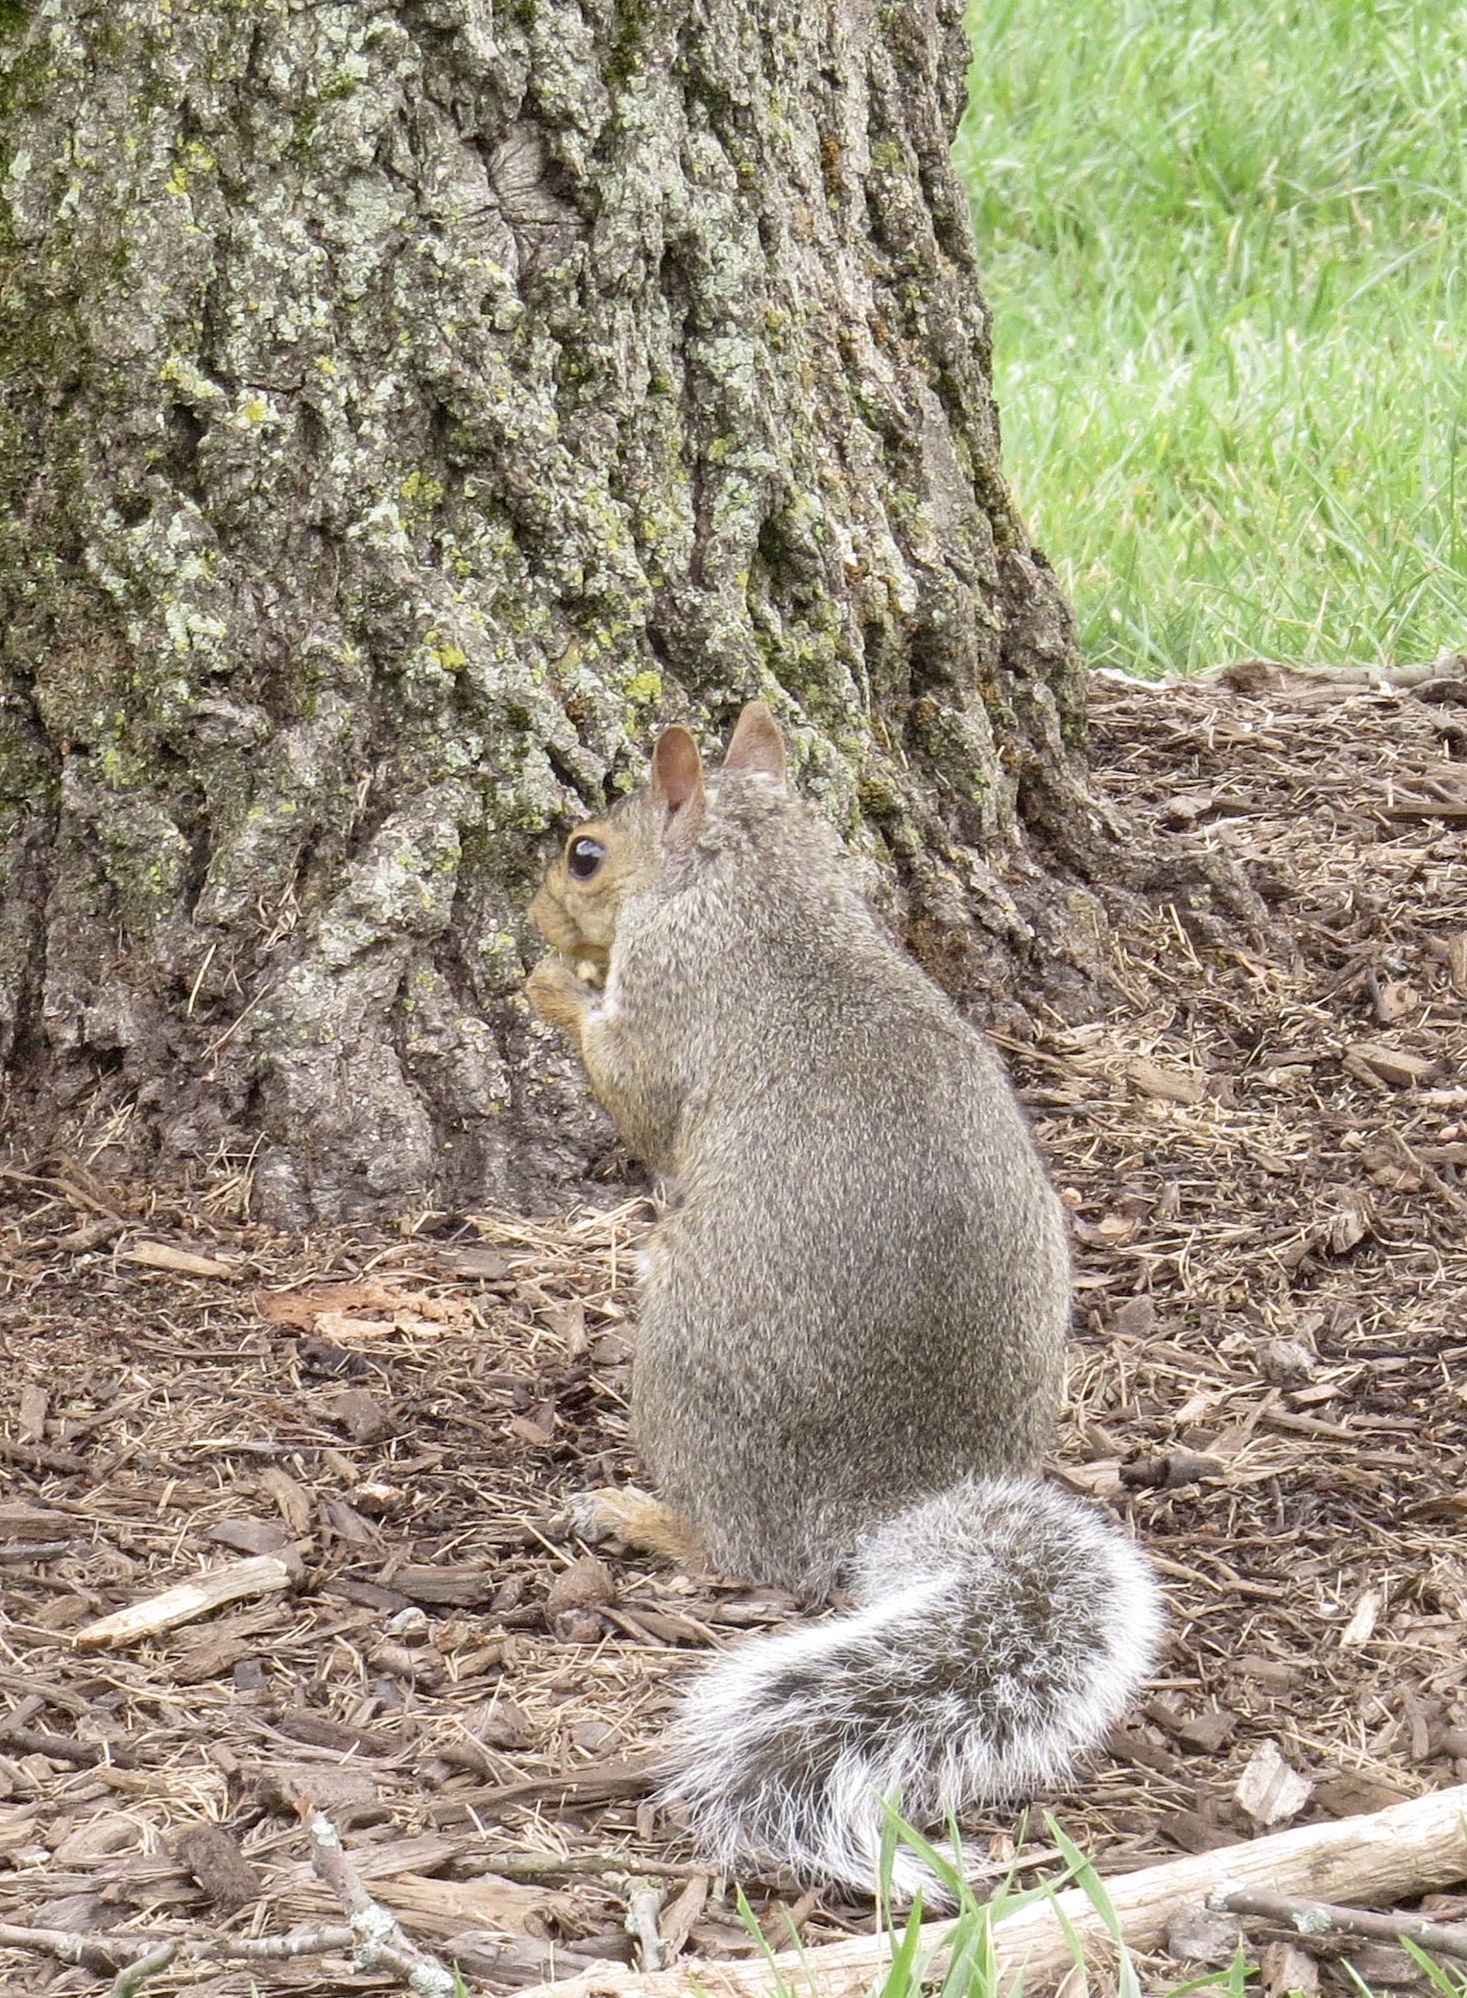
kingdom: Animalia
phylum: Chordata
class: Mammalia
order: Rodentia
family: Sciuridae
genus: Sciurus
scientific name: Sciurus carolinensis
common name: Eastern gray squirrel
